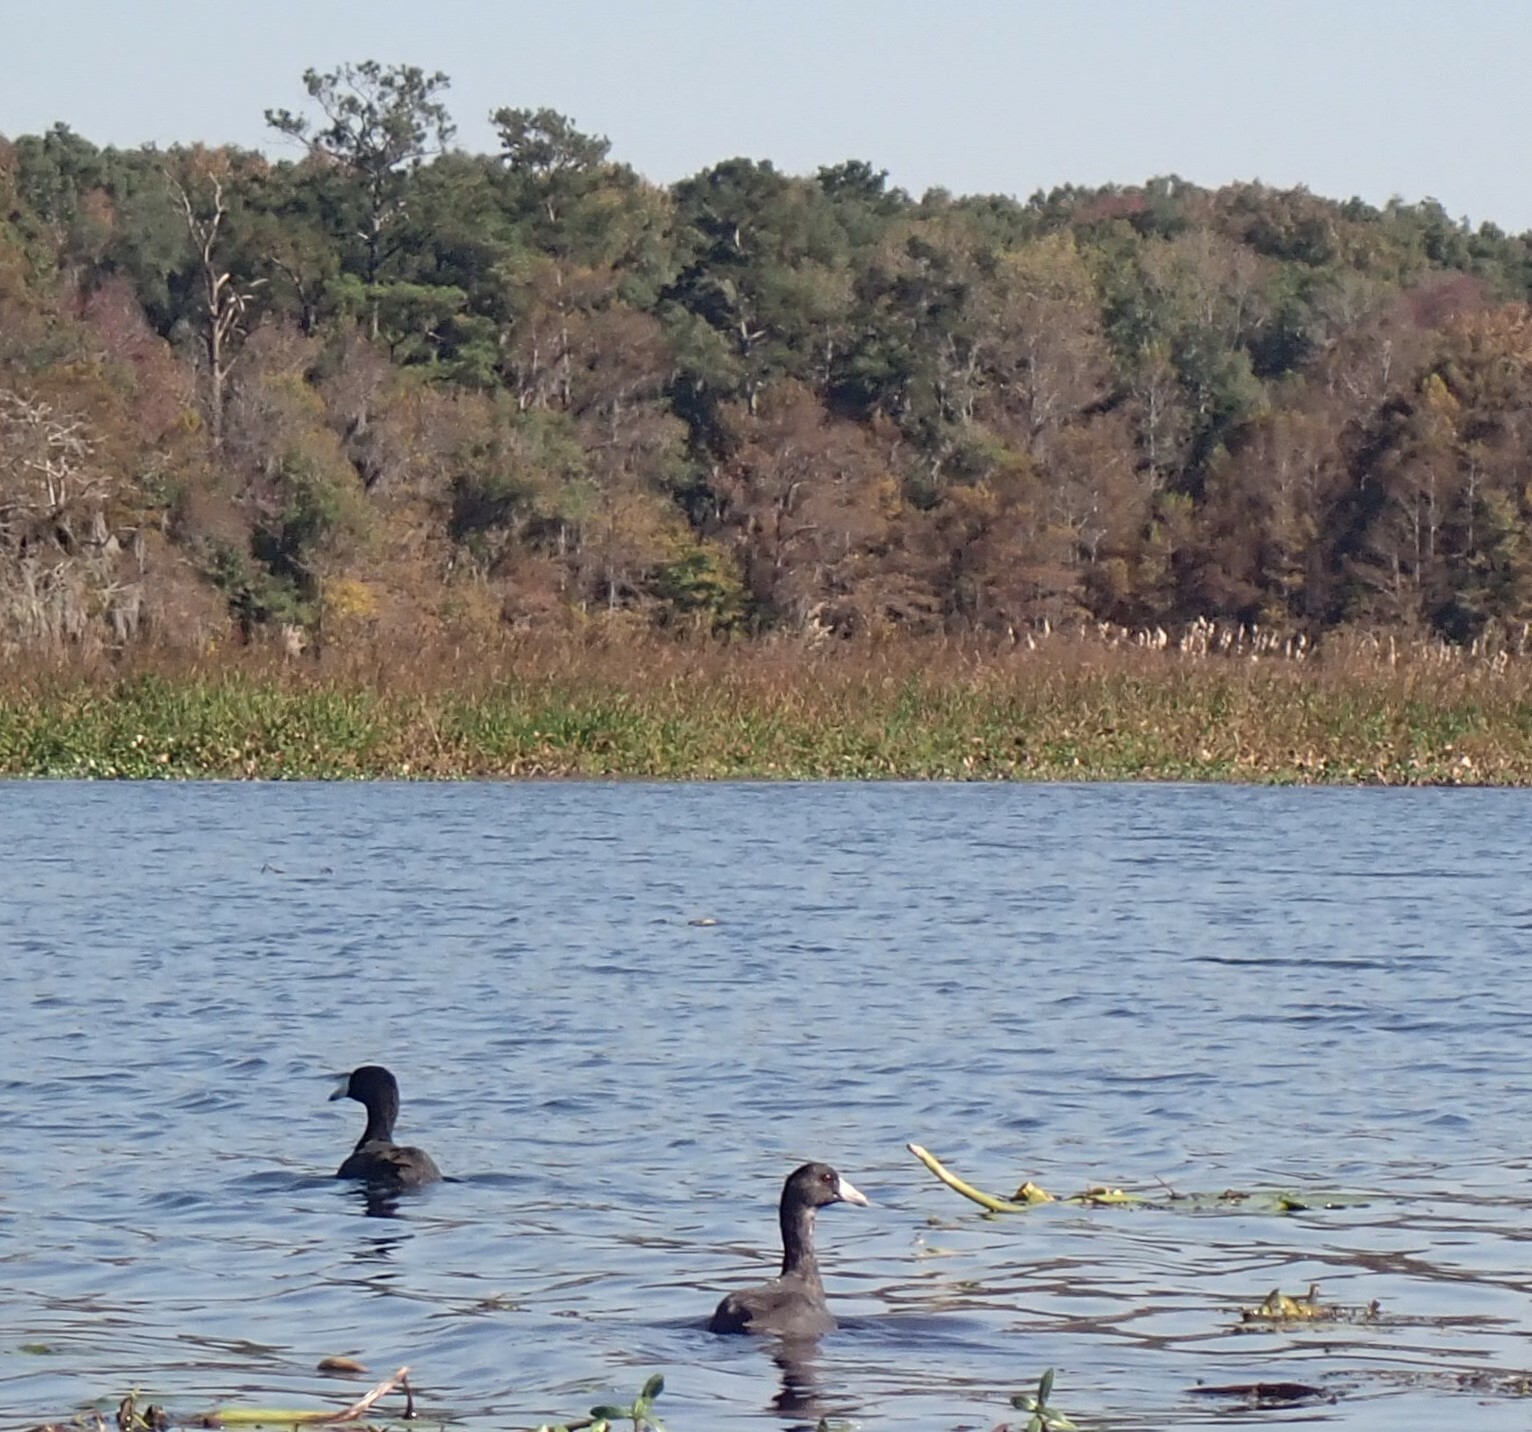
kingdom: Animalia
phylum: Chordata
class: Aves
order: Gruiformes
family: Rallidae
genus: Fulica
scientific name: Fulica americana
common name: American coot
